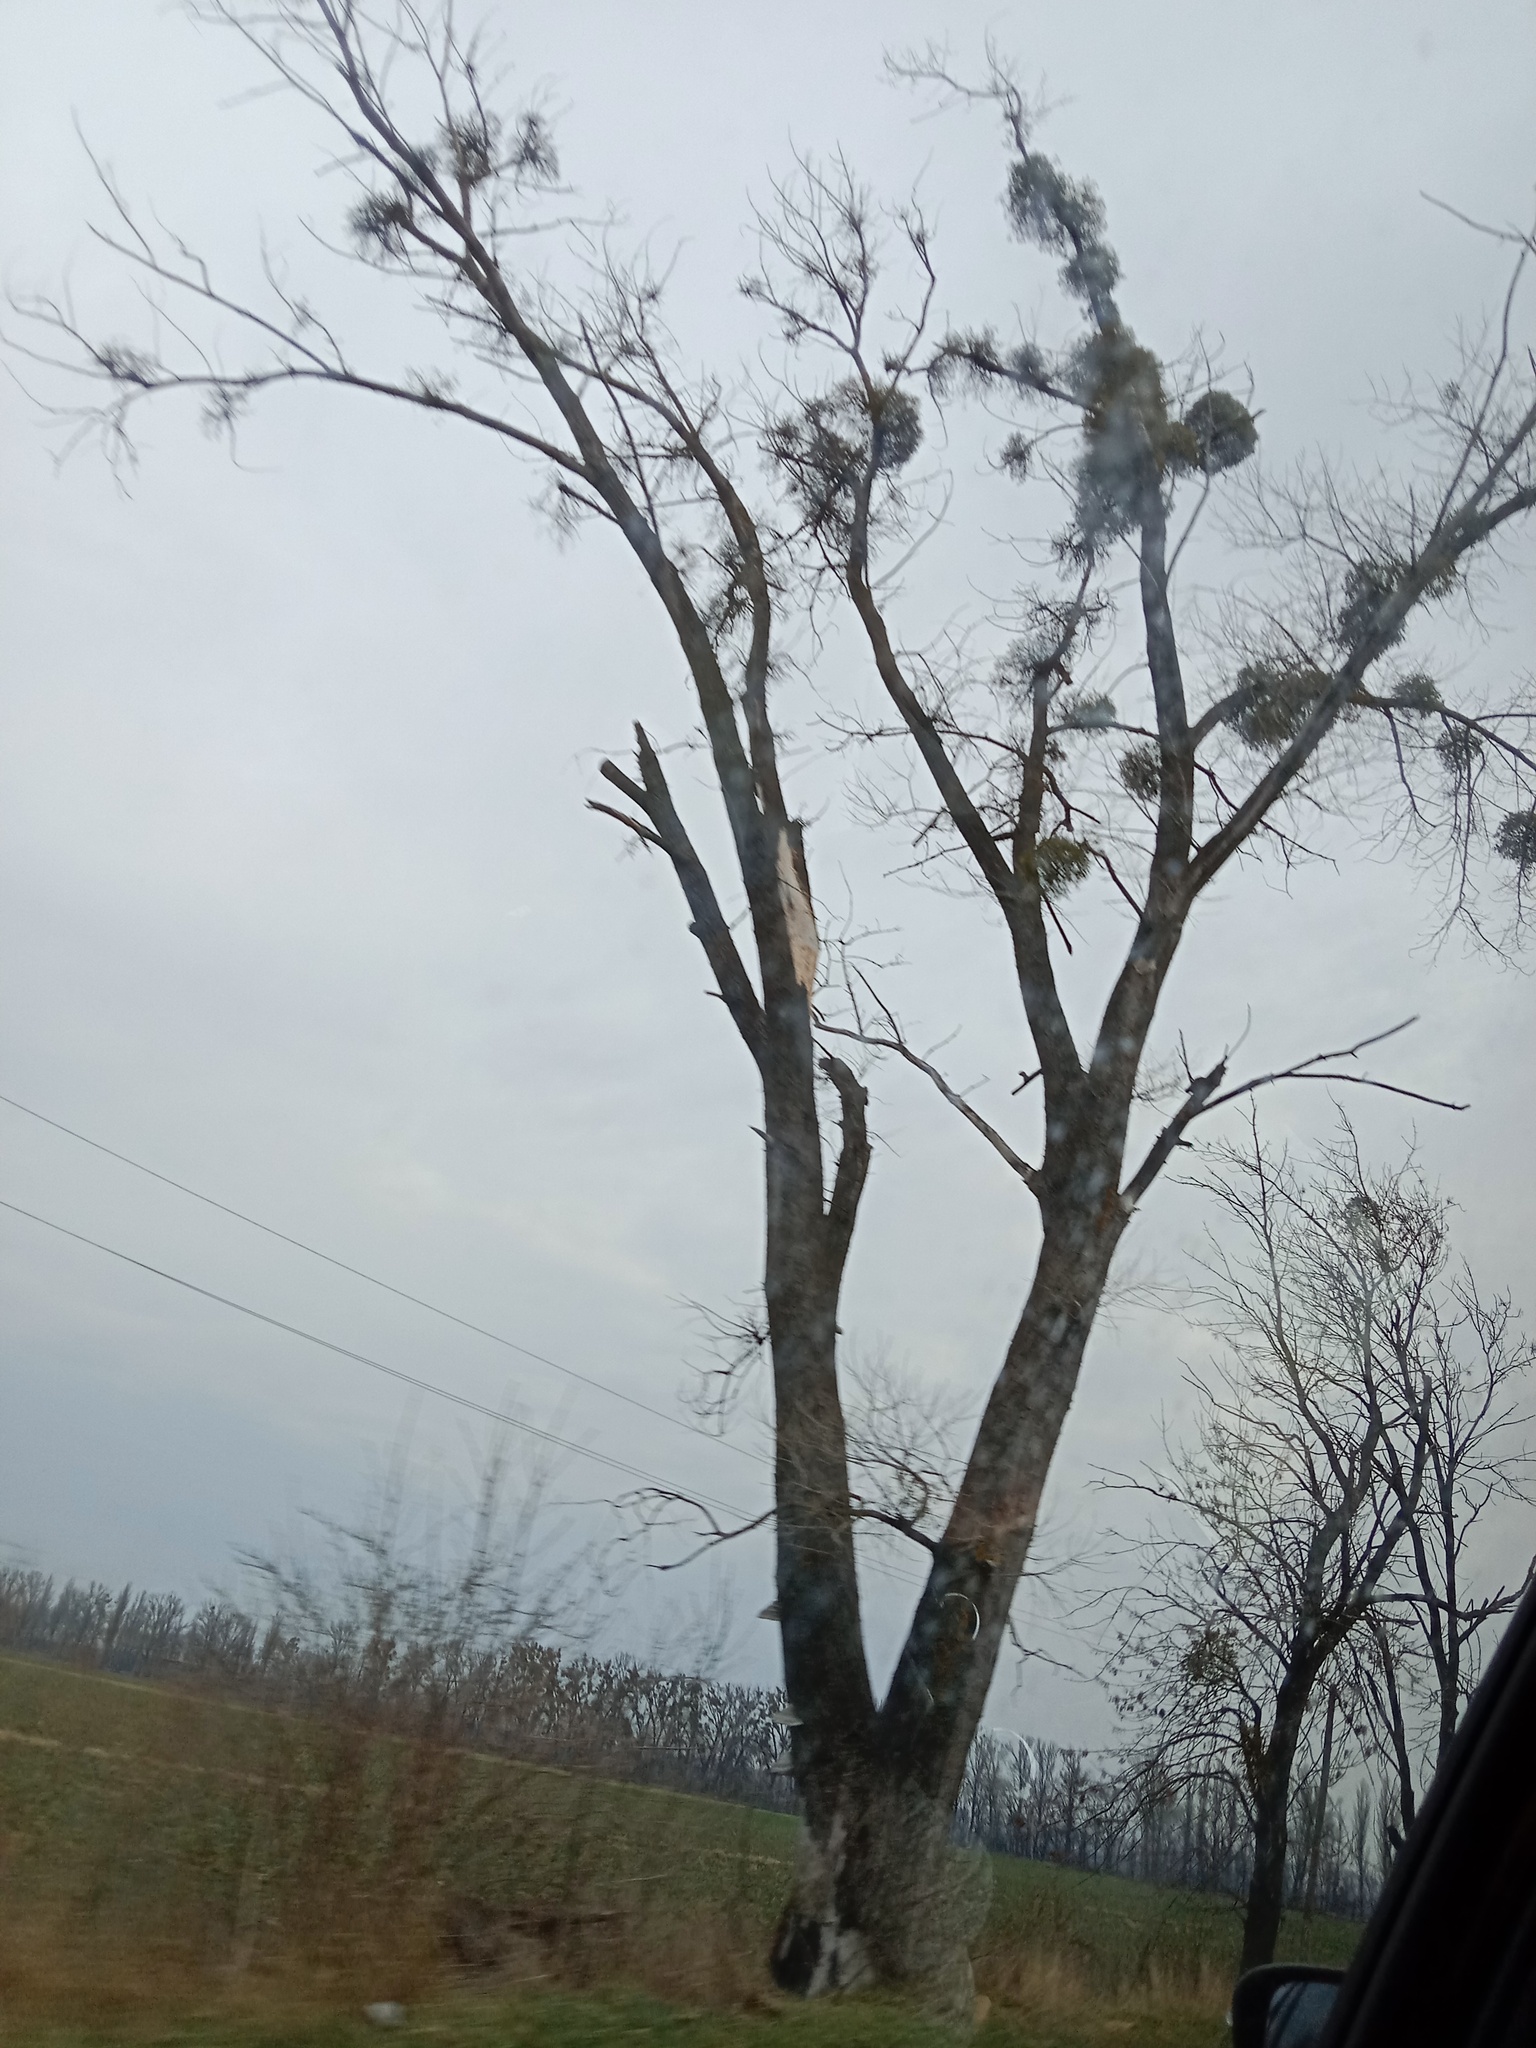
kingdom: Plantae
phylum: Tracheophyta
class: Magnoliopsida
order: Santalales
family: Viscaceae
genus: Viscum
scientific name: Viscum album
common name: Mistletoe
